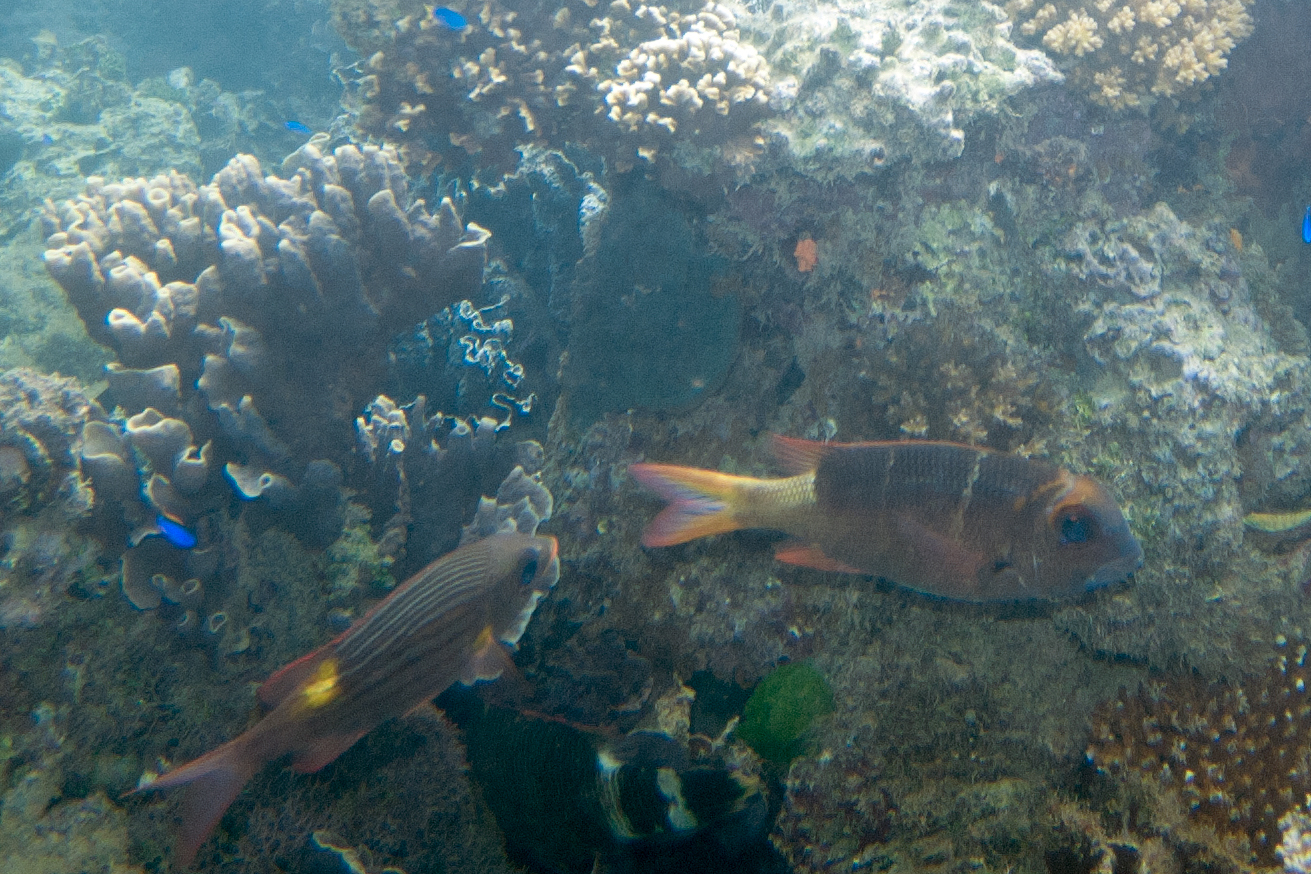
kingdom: Animalia
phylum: Chordata
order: Perciformes
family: Lethrinidae
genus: Monotaxis
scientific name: Monotaxis heterodon
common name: Redfin emperor
